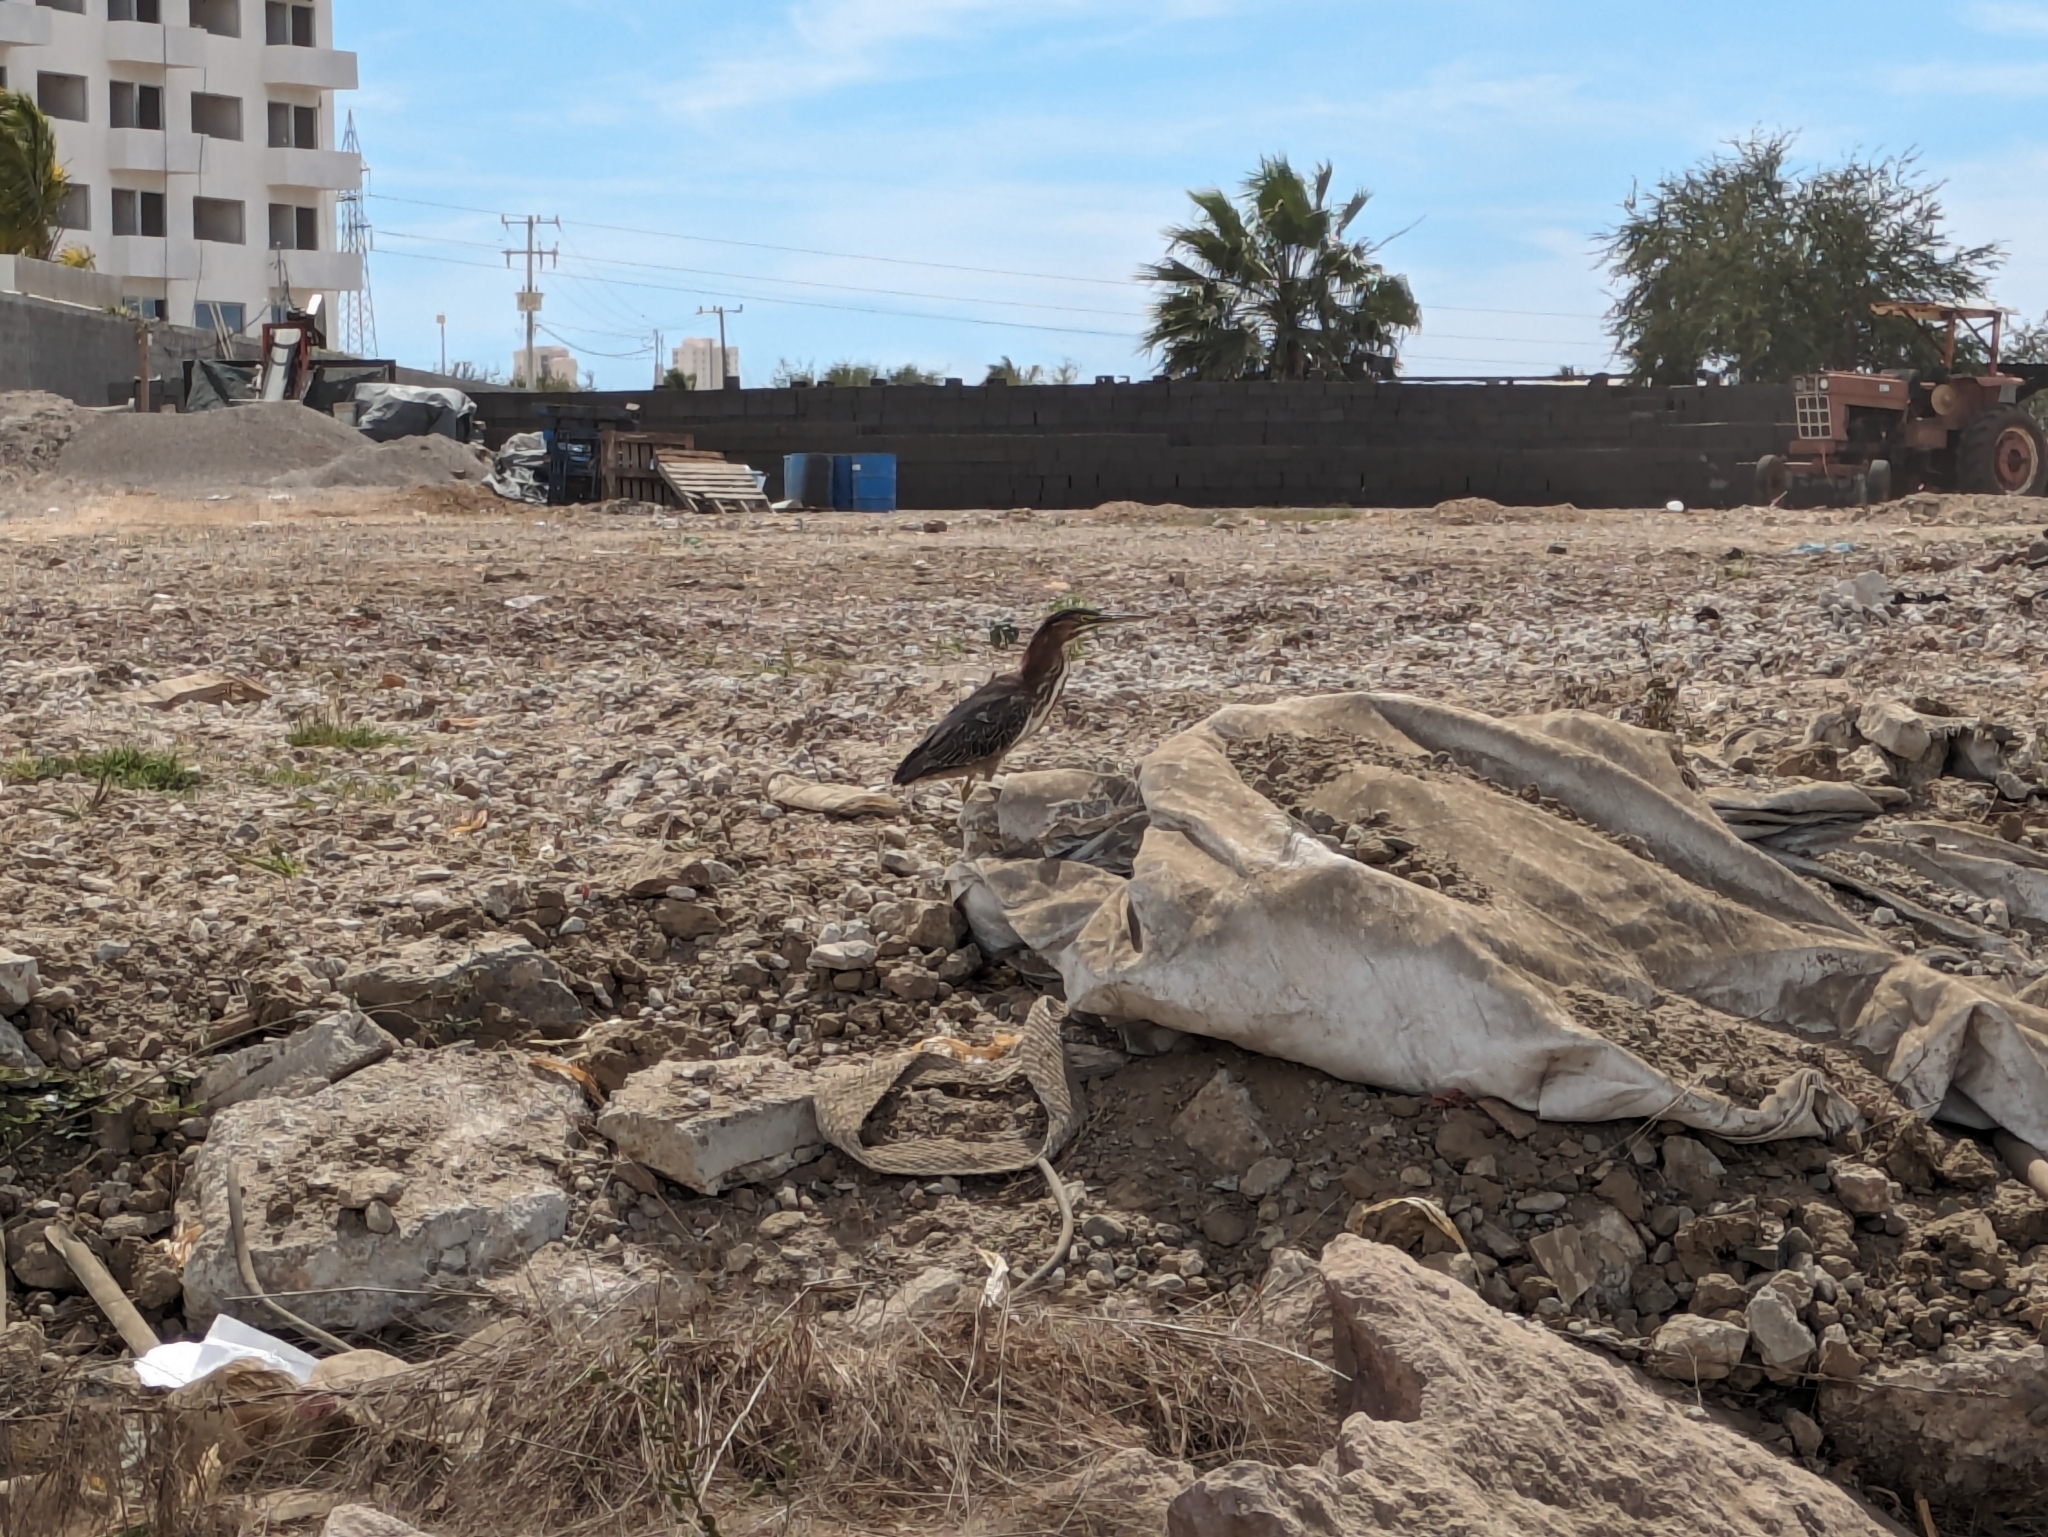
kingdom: Animalia
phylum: Chordata
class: Aves
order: Pelecaniformes
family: Ardeidae
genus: Butorides
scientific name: Butorides virescens
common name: Green heron
